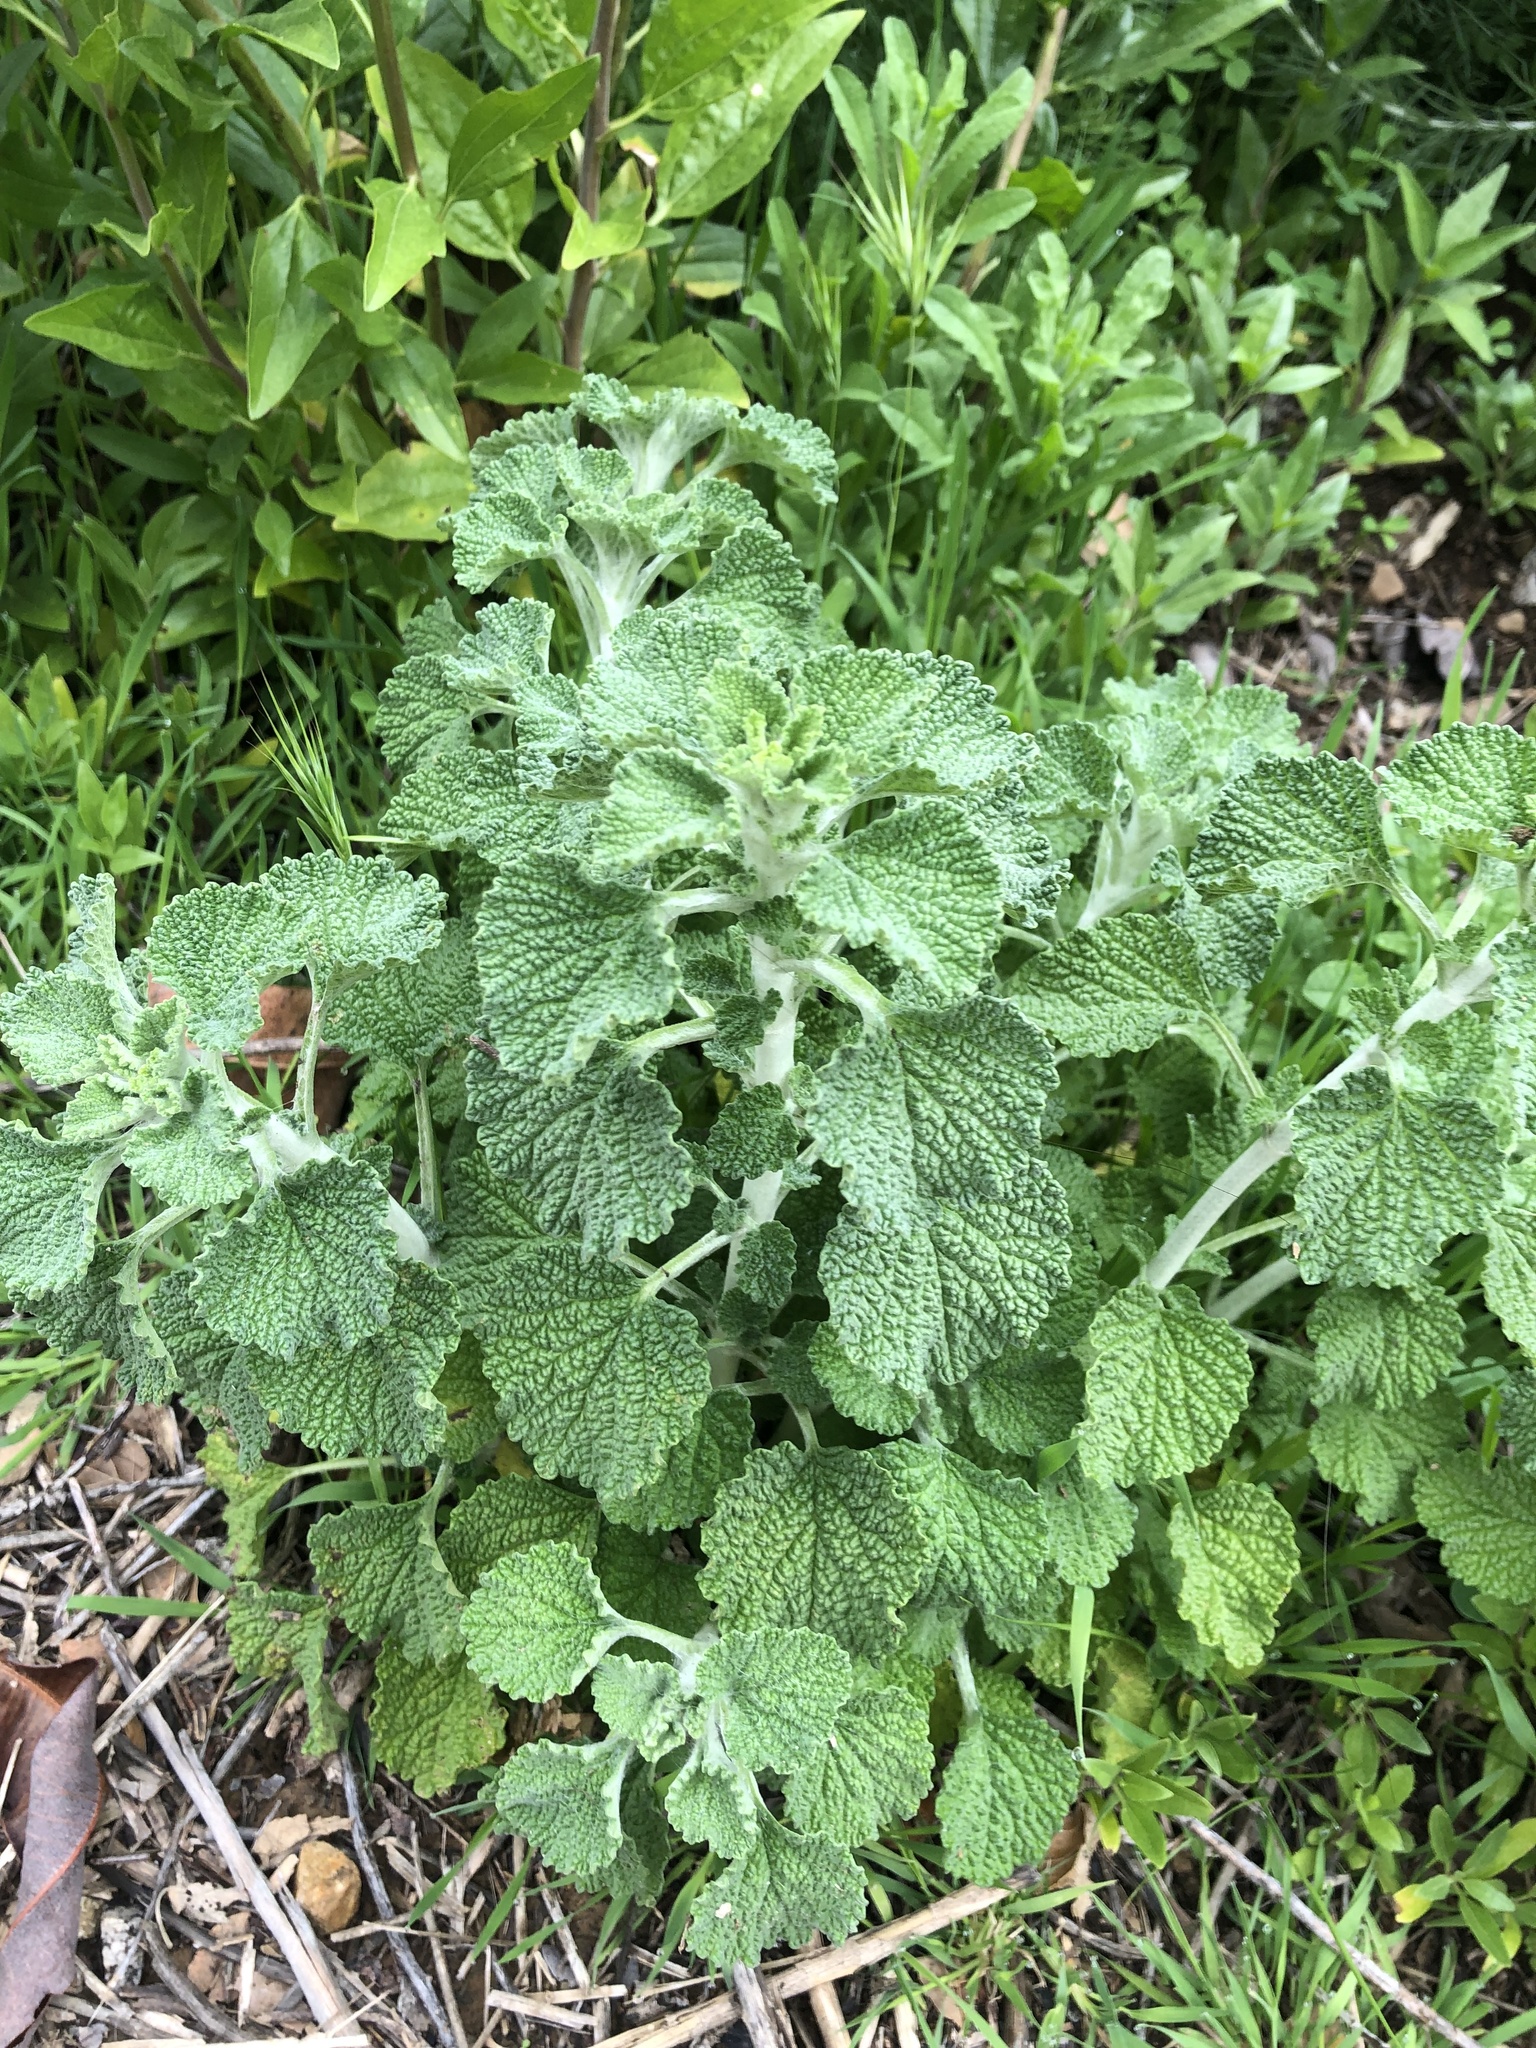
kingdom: Plantae
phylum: Tracheophyta
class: Magnoliopsida
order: Lamiales
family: Lamiaceae
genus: Marrubium
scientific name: Marrubium vulgare
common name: Horehound
